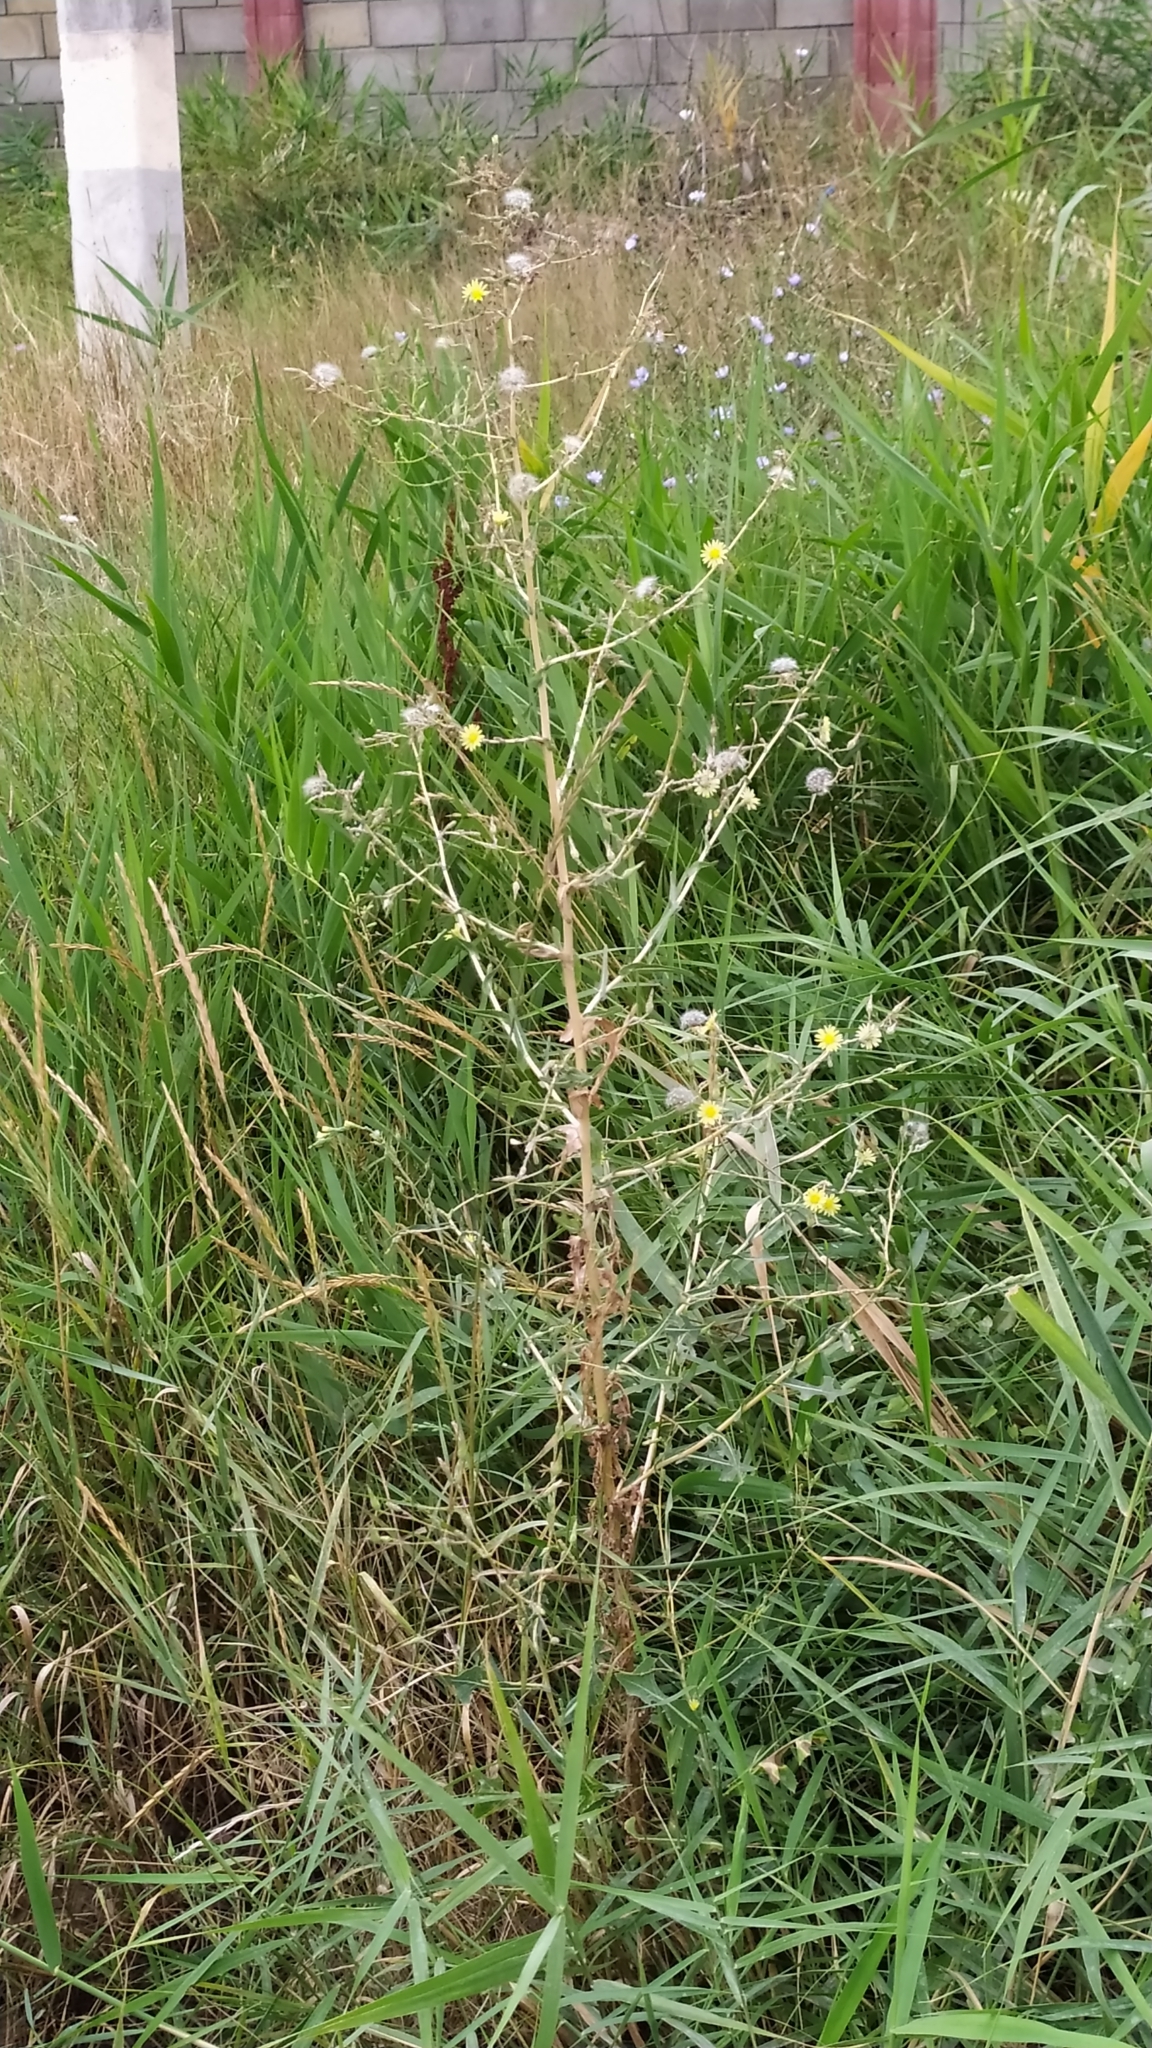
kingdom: Plantae
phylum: Tracheophyta
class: Magnoliopsida
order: Asterales
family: Asteraceae
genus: Lactuca
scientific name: Lactuca serriola
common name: Prickly lettuce
